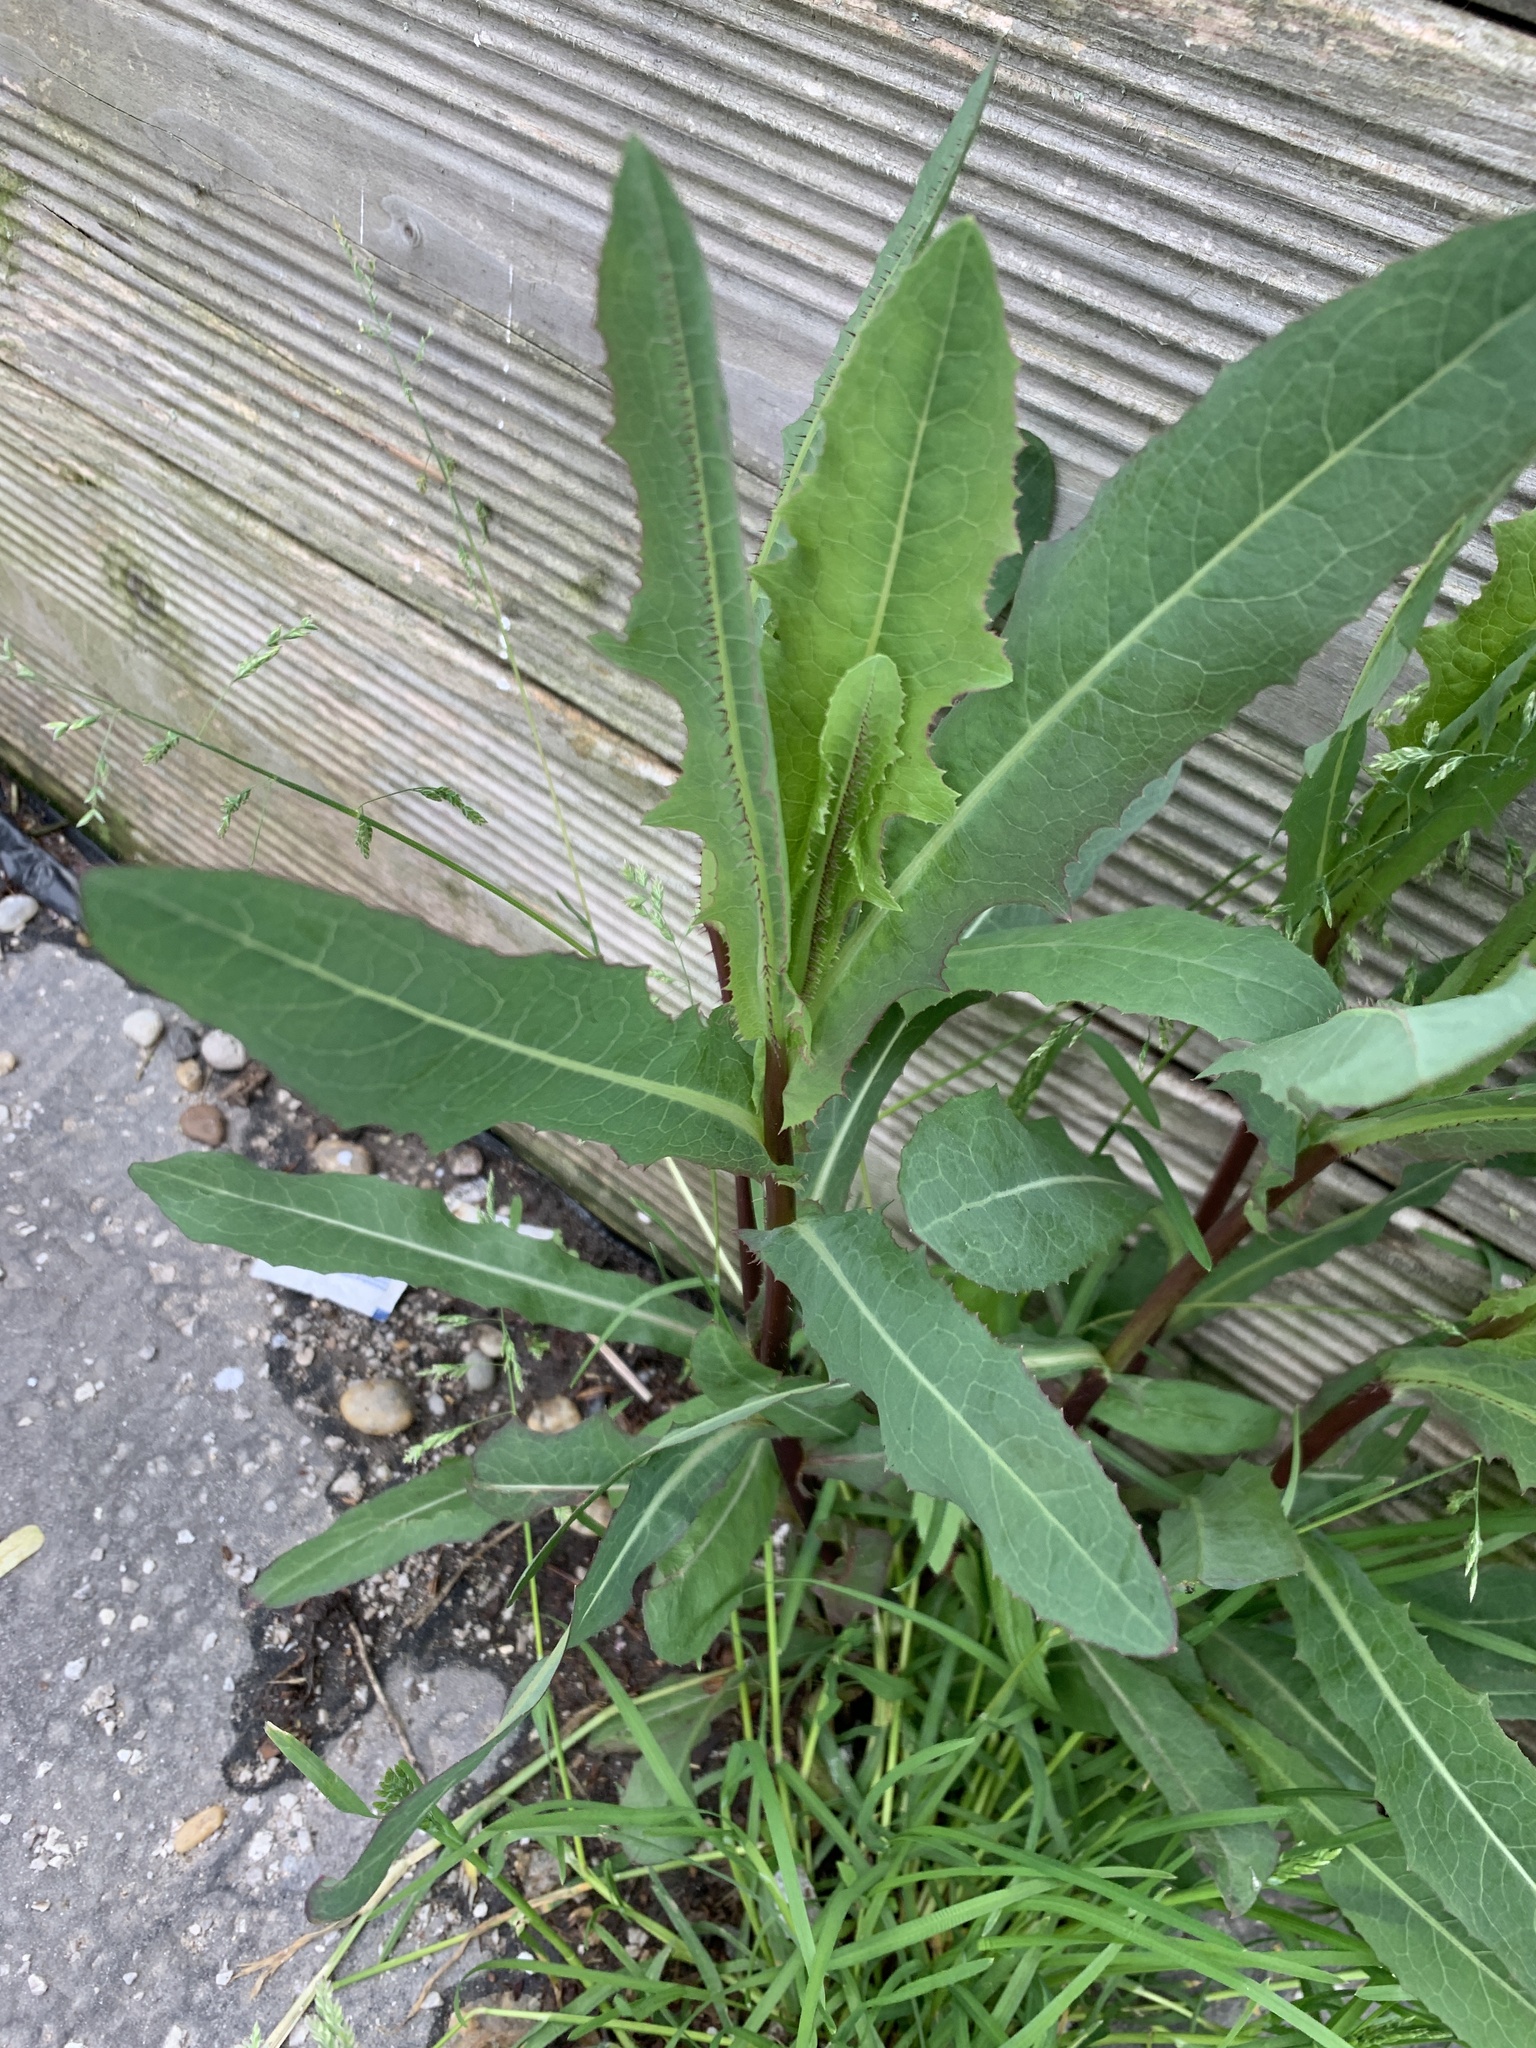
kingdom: Plantae
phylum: Tracheophyta
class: Magnoliopsida
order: Asterales
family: Asteraceae
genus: Lactuca
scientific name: Lactuca serriola
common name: Prickly lettuce
